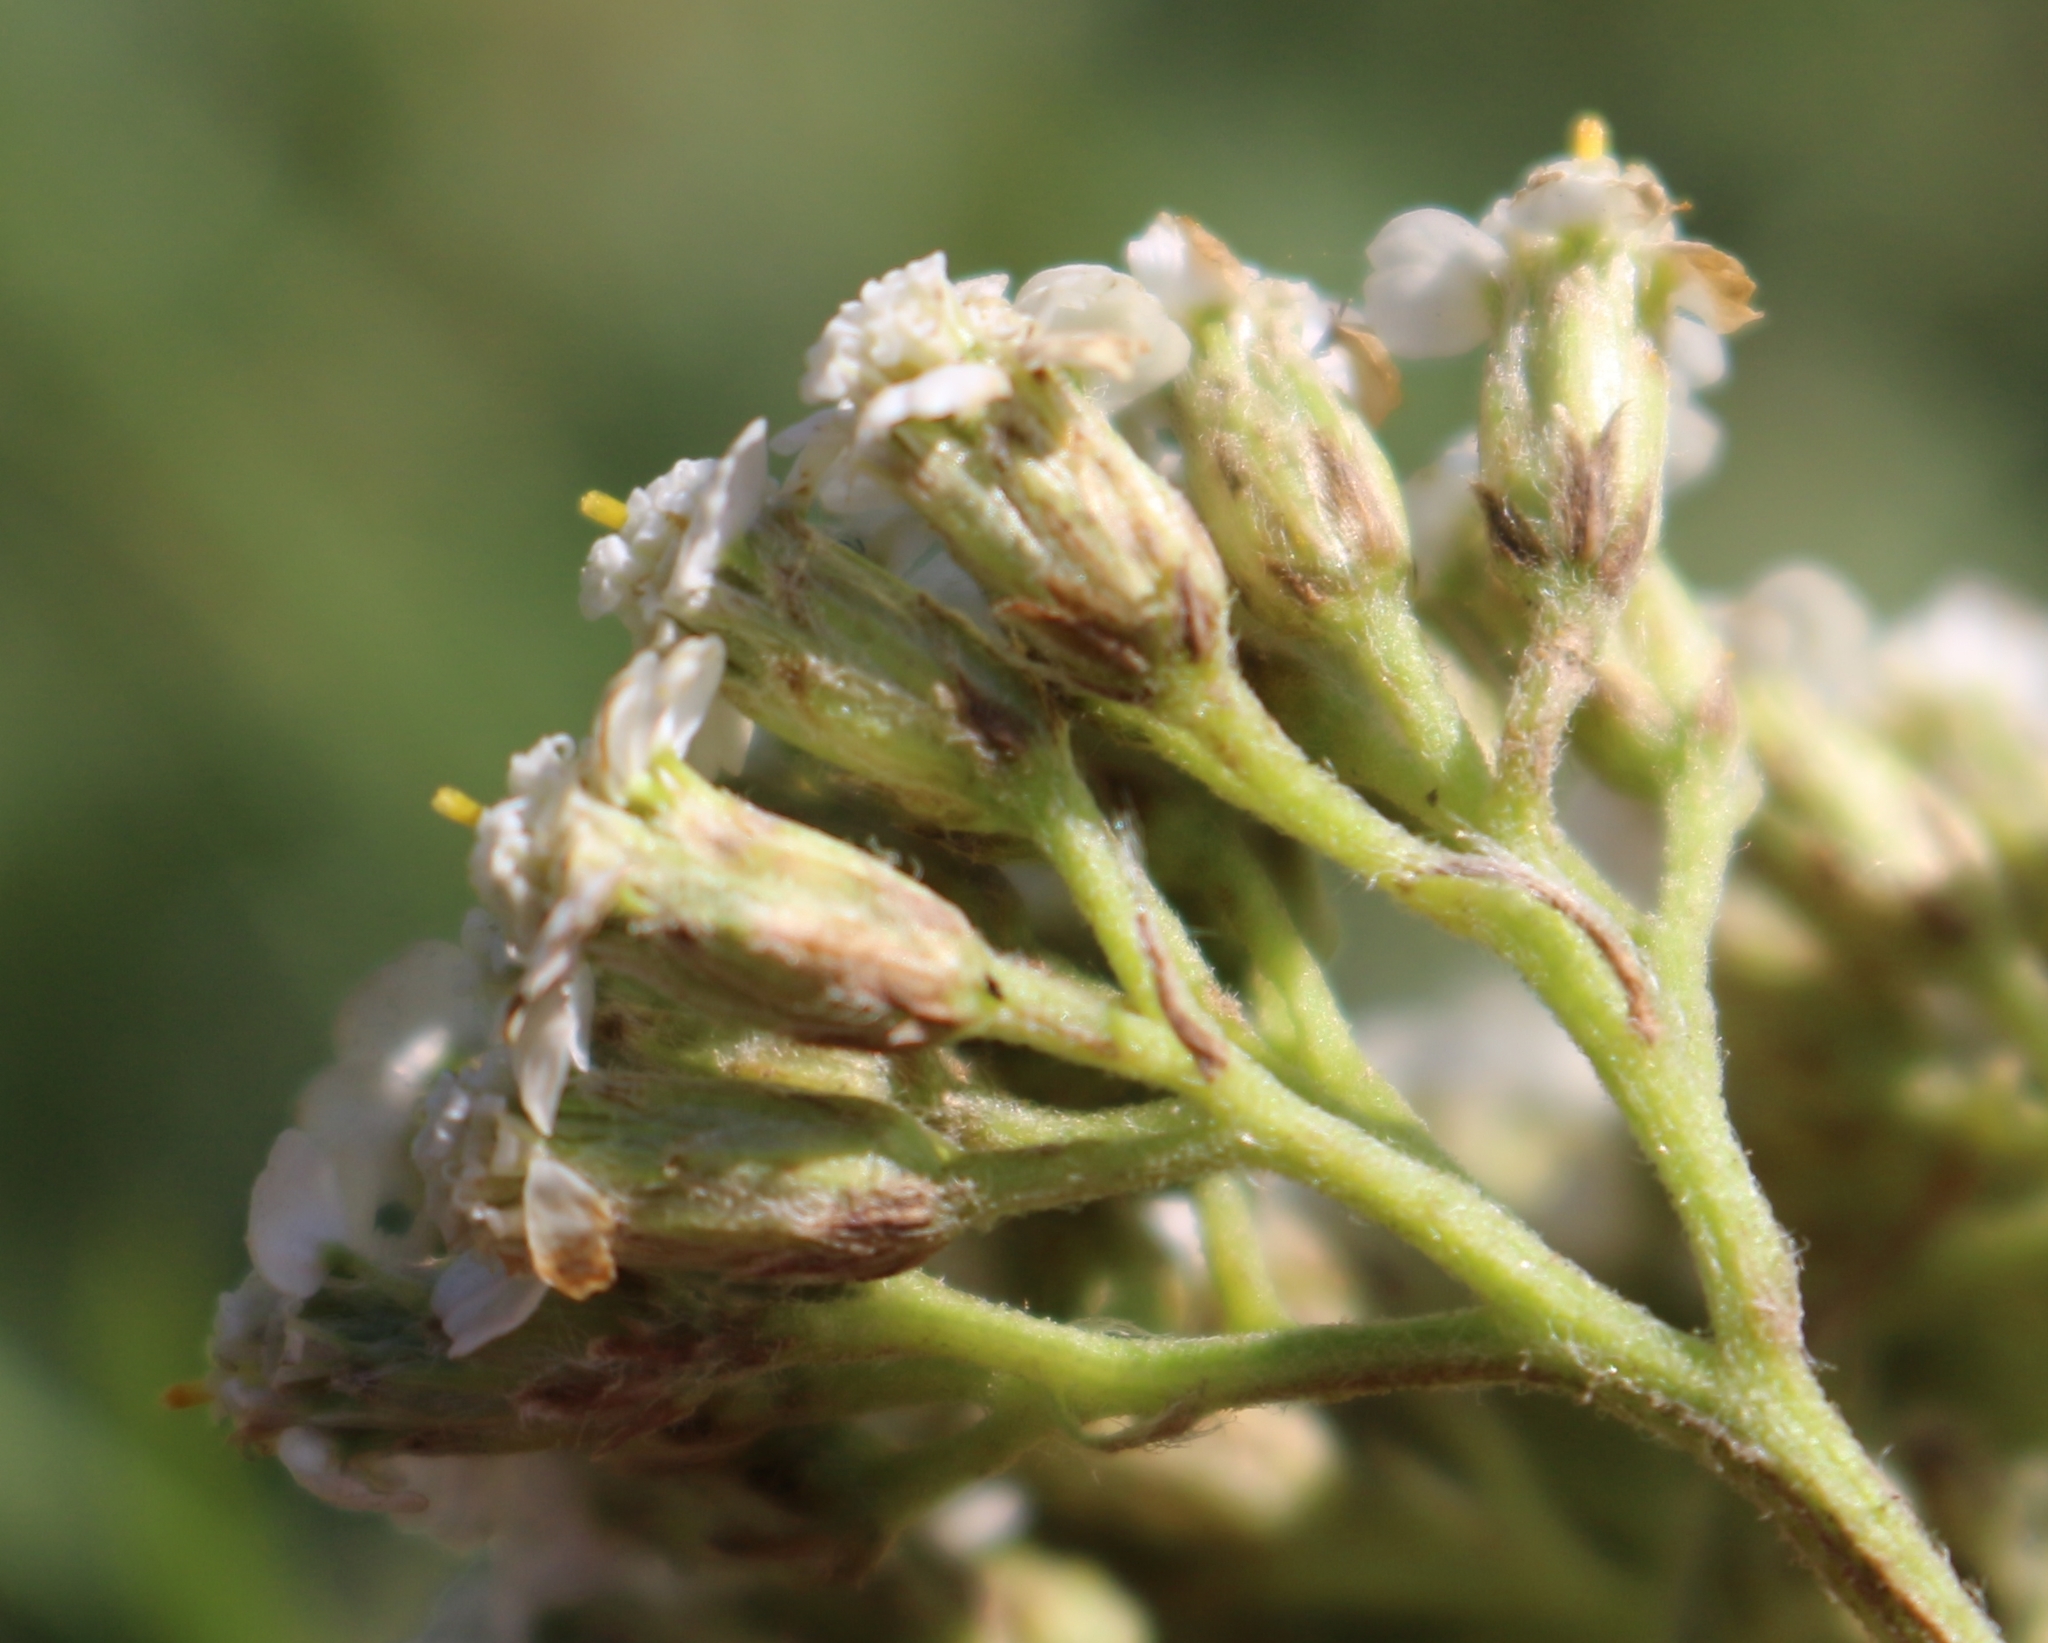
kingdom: Plantae
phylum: Tracheophyta
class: Magnoliopsida
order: Asterales
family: Asteraceae
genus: Achillea
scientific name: Achillea millefolium
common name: Yarrow
